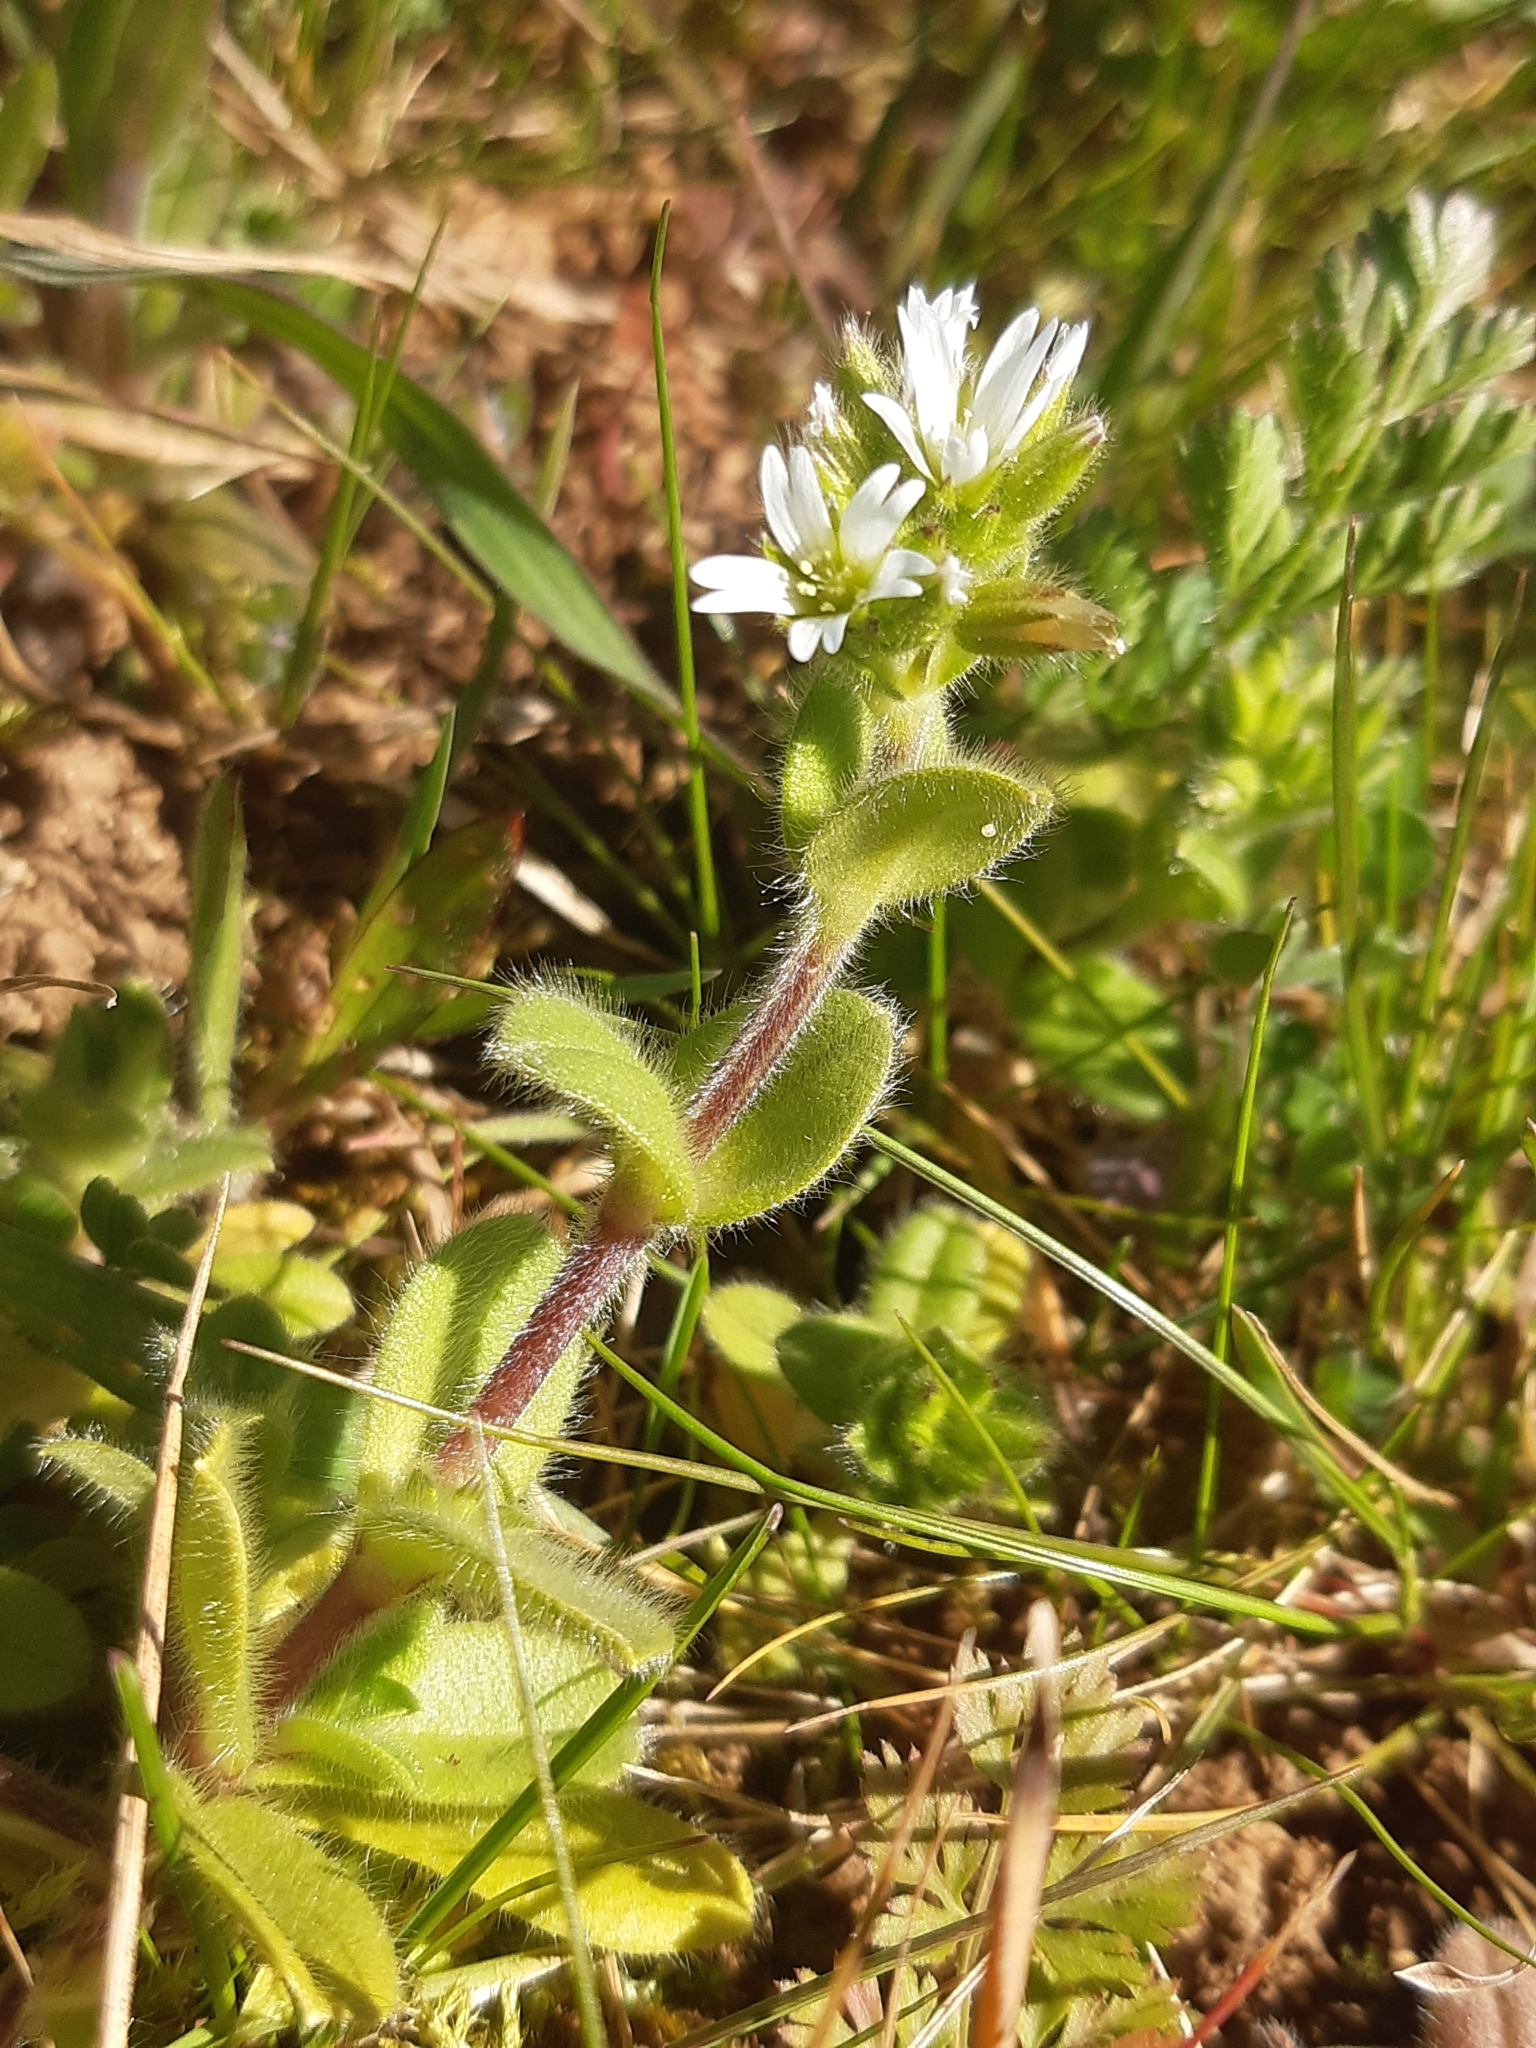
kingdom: Plantae
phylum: Tracheophyta
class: Magnoliopsida
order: Caryophyllales
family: Caryophyllaceae
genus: Cerastium
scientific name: Cerastium glomeratum
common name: Sticky chickweed
